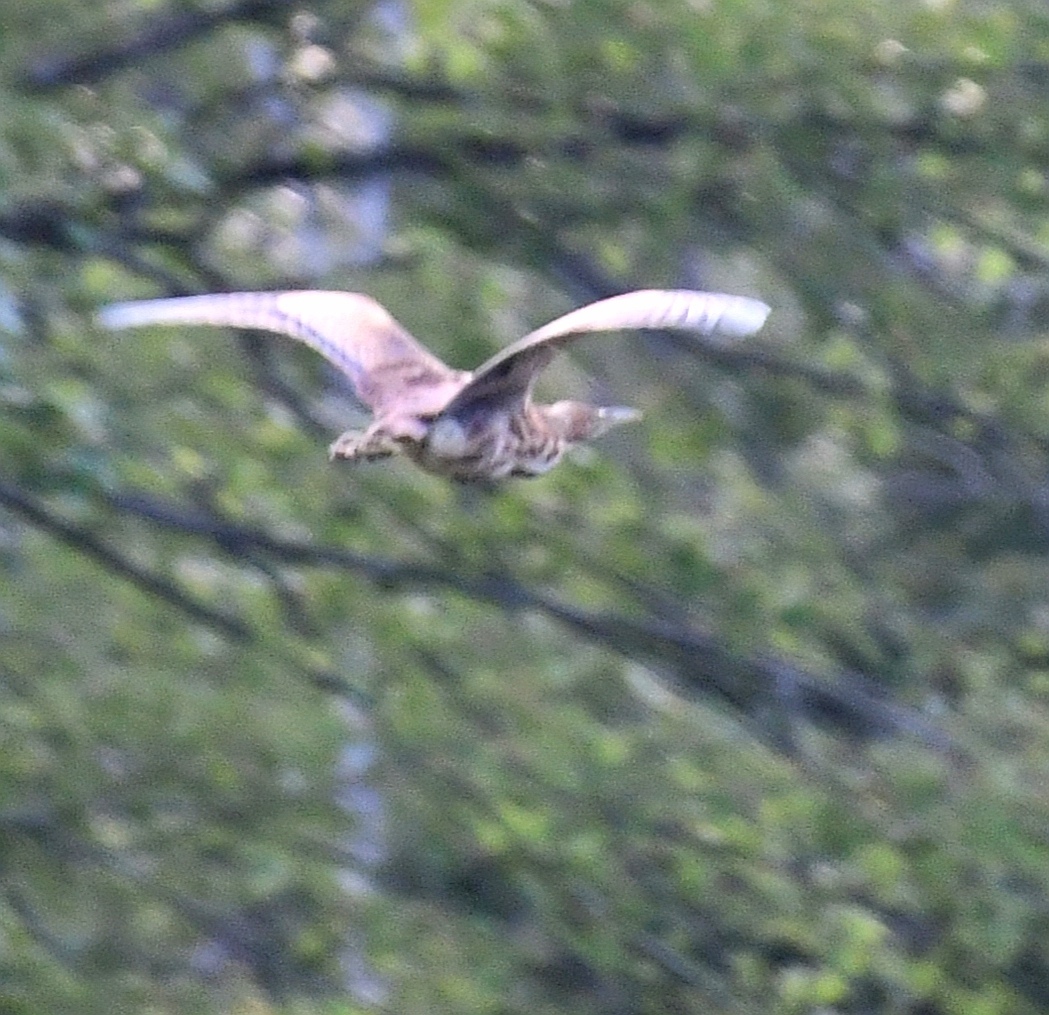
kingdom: Animalia
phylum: Chordata
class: Aves
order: Pelecaniformes
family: Ardeidae
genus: Botaurus
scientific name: Botaurus lentiginosus
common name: American bittern
